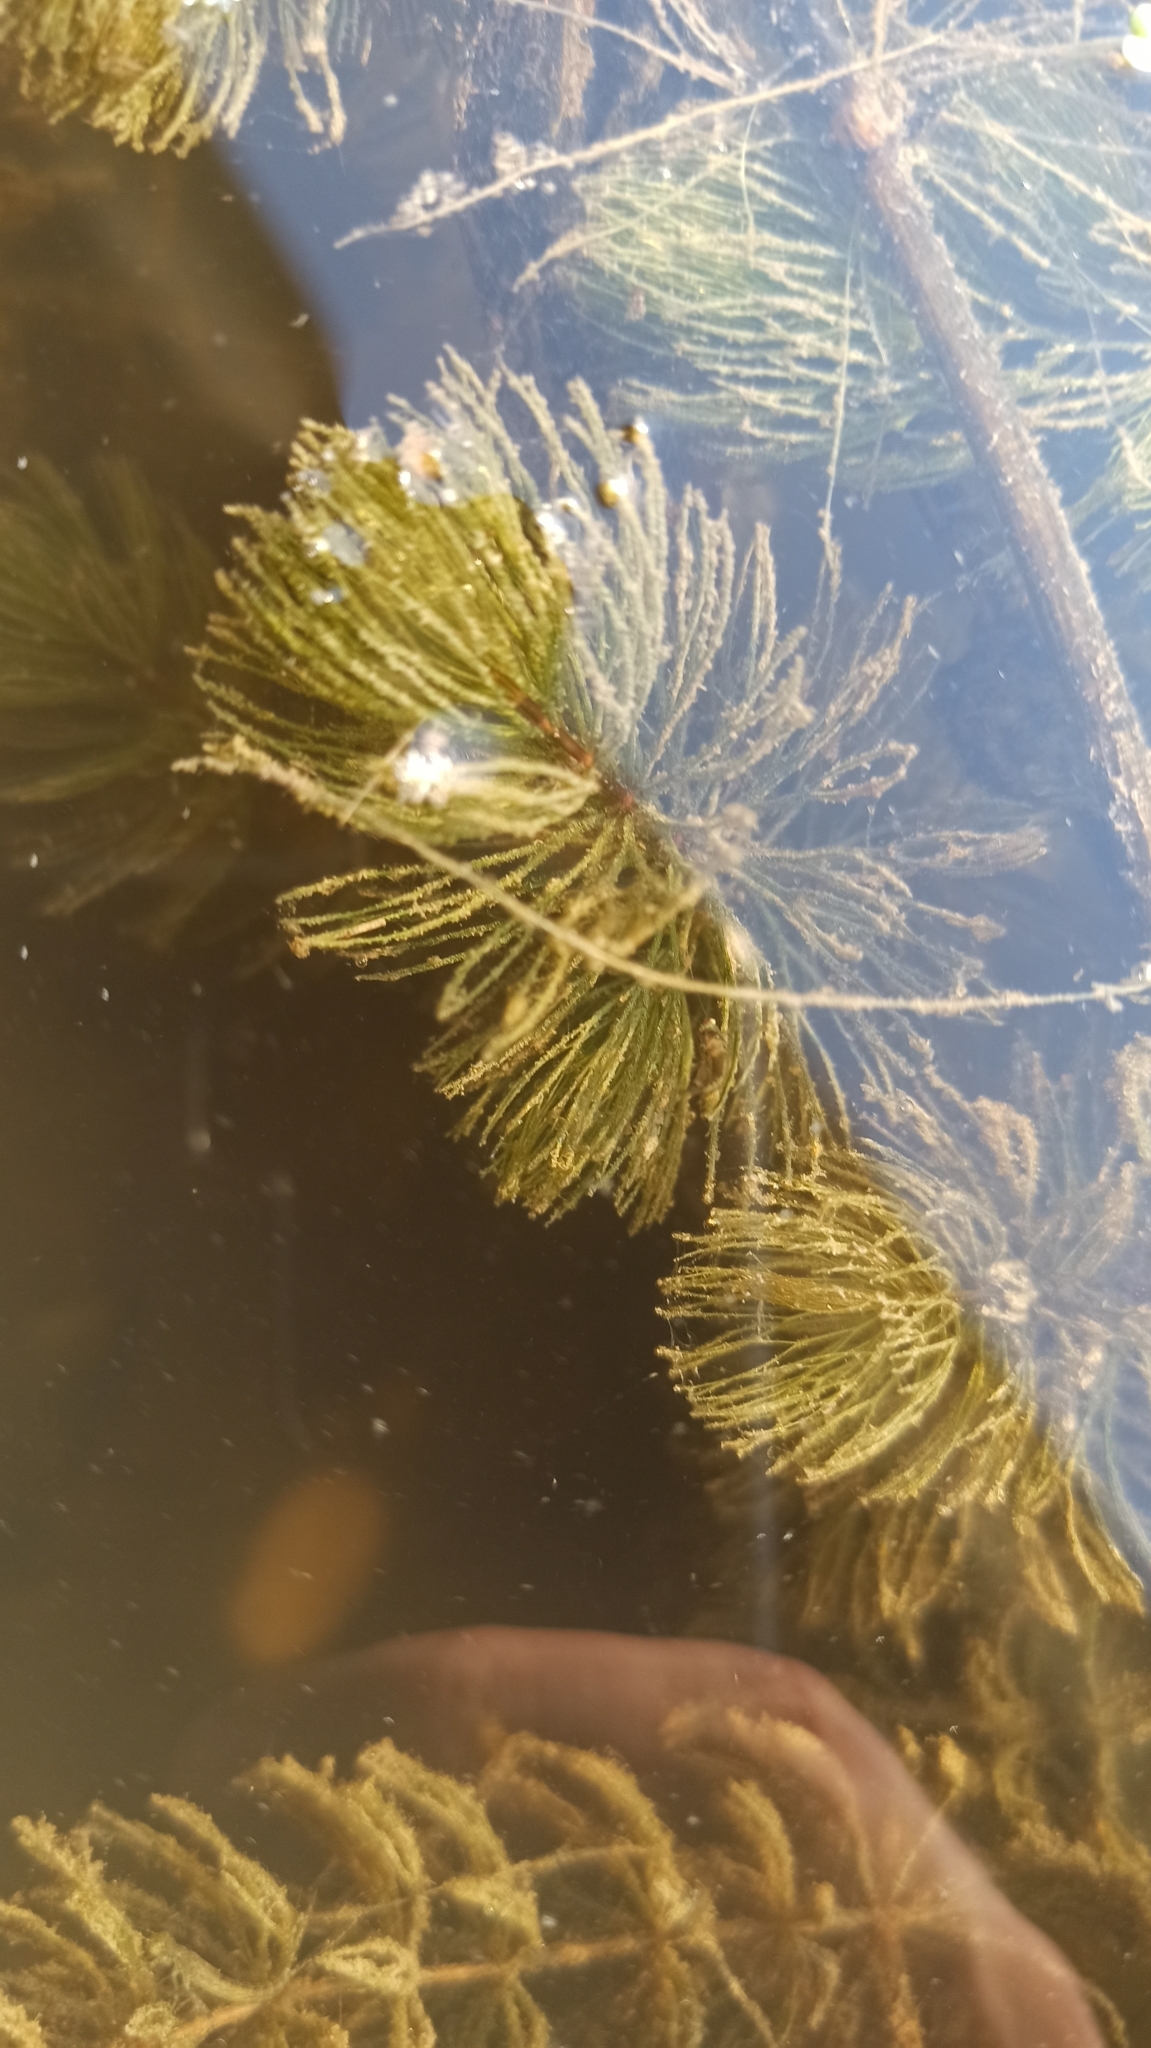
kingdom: Plantae
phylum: Tracheophyta
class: Magnoliopsida
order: Ceratophyllales
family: Ceratophyllaceae
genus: Ceratophyllum
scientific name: Ceratophyllum demersum
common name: Rigid hornwort
